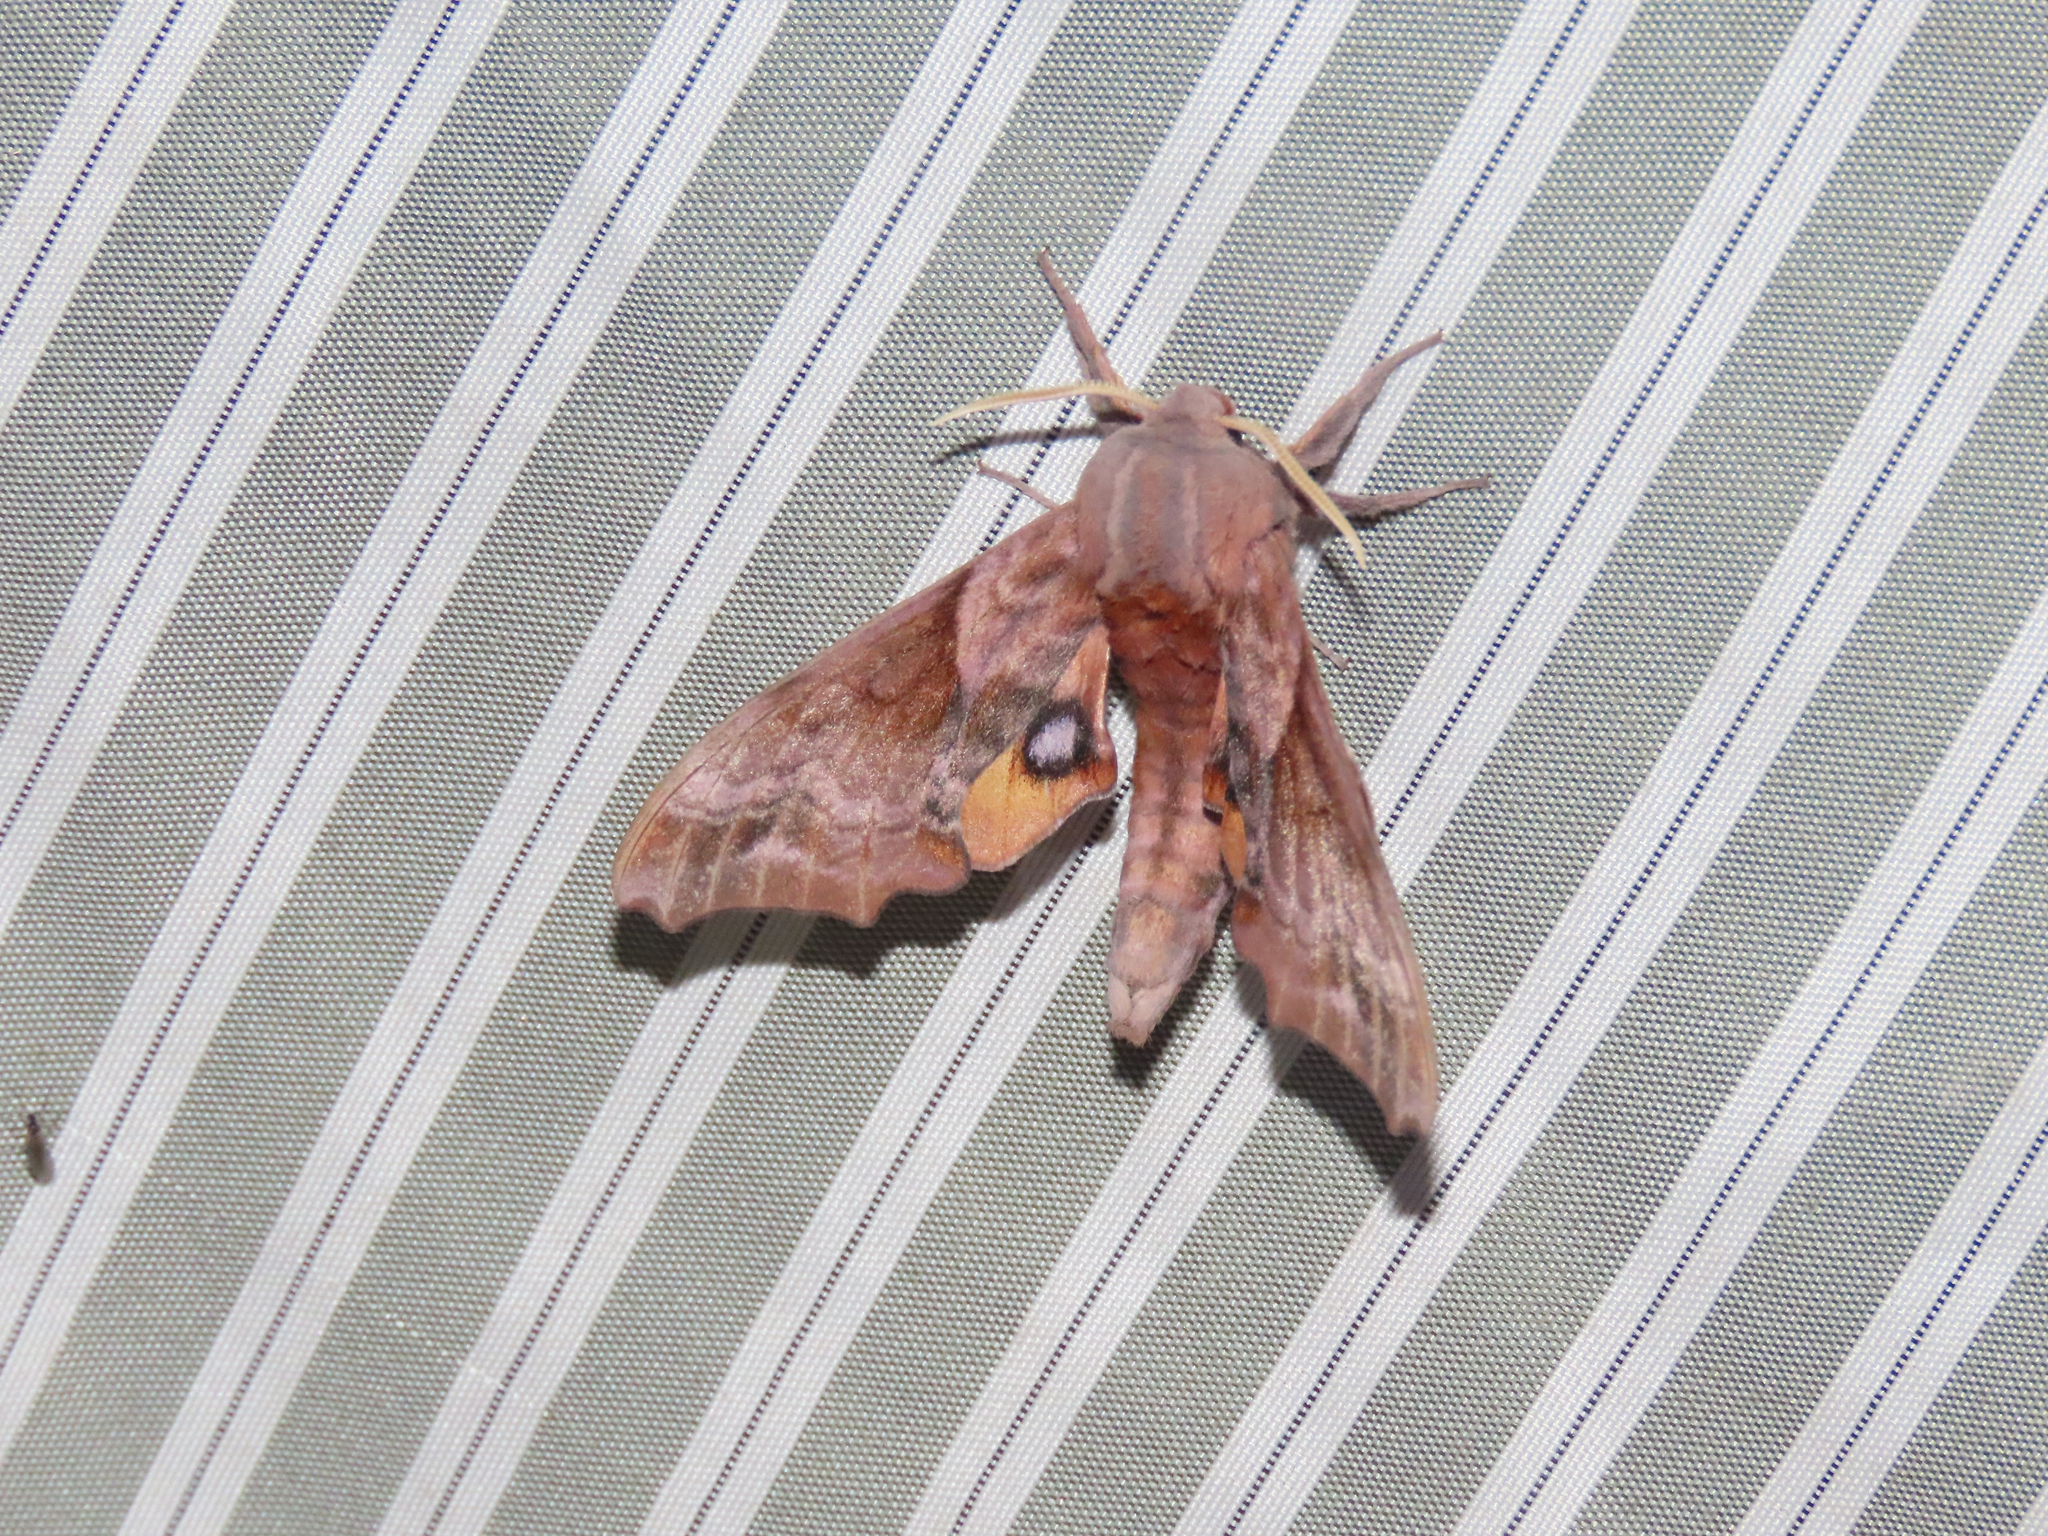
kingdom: Animalia
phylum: Arthropoda
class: Insecta
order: Lepidoptera
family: Sphingidae
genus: Paonias
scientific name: Paonias myops
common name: Small-eyed sphinx
